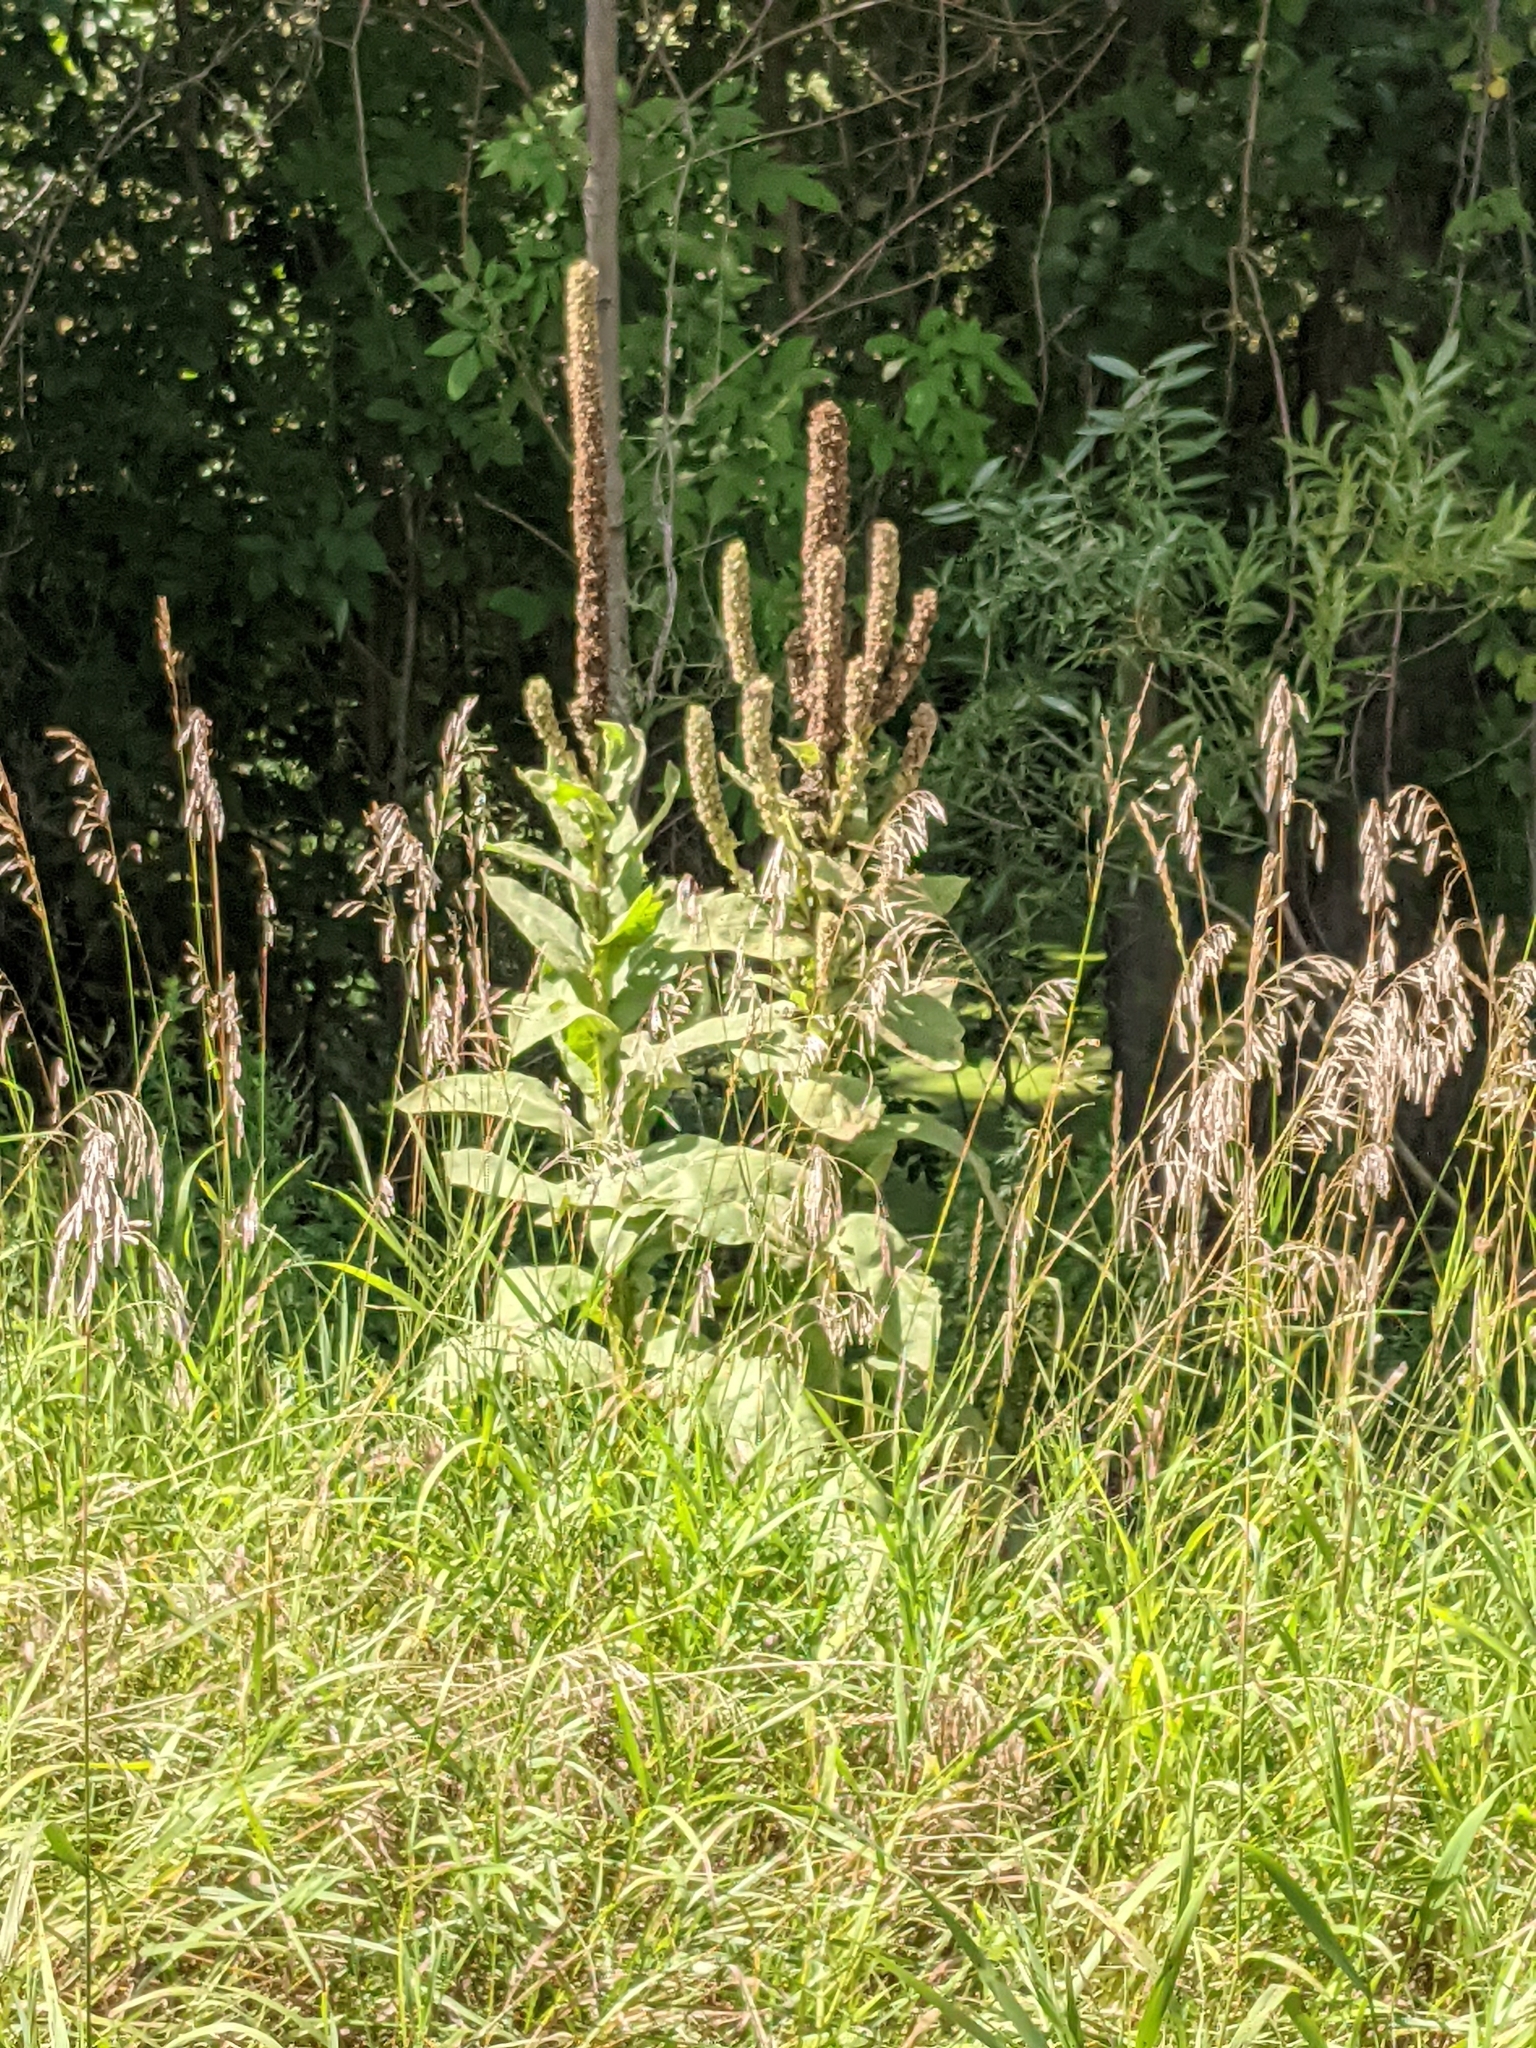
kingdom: Plantae
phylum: Tracheophyta
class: Magnoliopsida
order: Lamiales
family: Scrophulariaceae
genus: Verbascum
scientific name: Verbascum thapsus
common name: Common mullein
